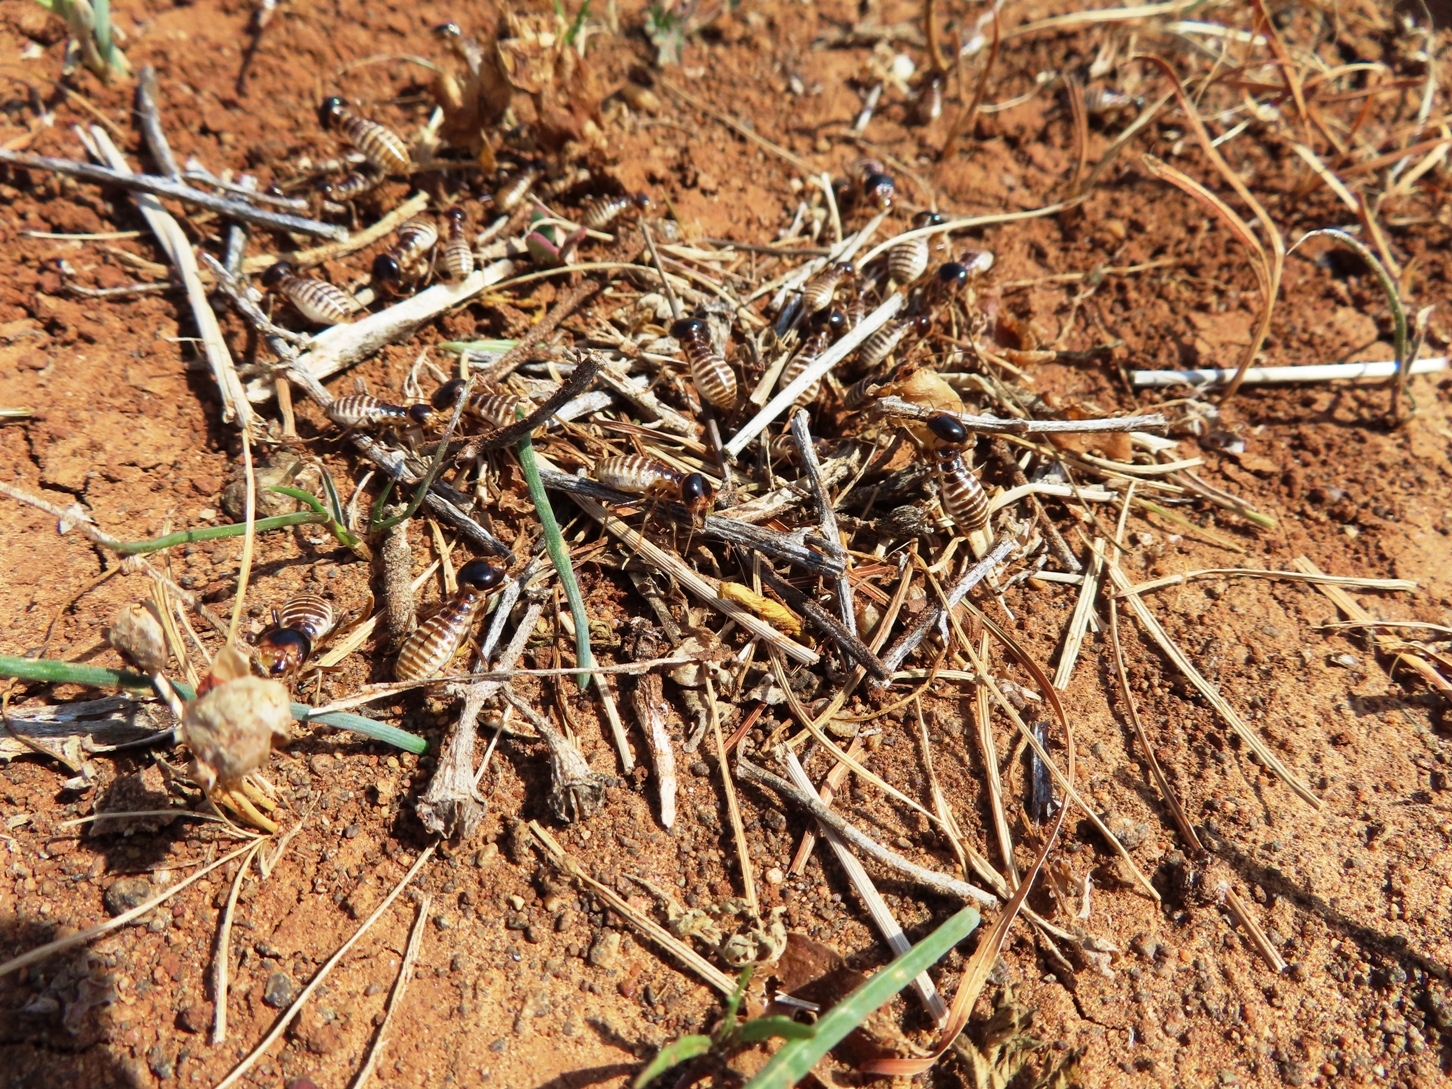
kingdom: Animalia
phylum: Arthropoda
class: Insecta
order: Blattodea
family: Hodotermitidae
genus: Hodotermes
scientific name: Hodotermes mossambicus
